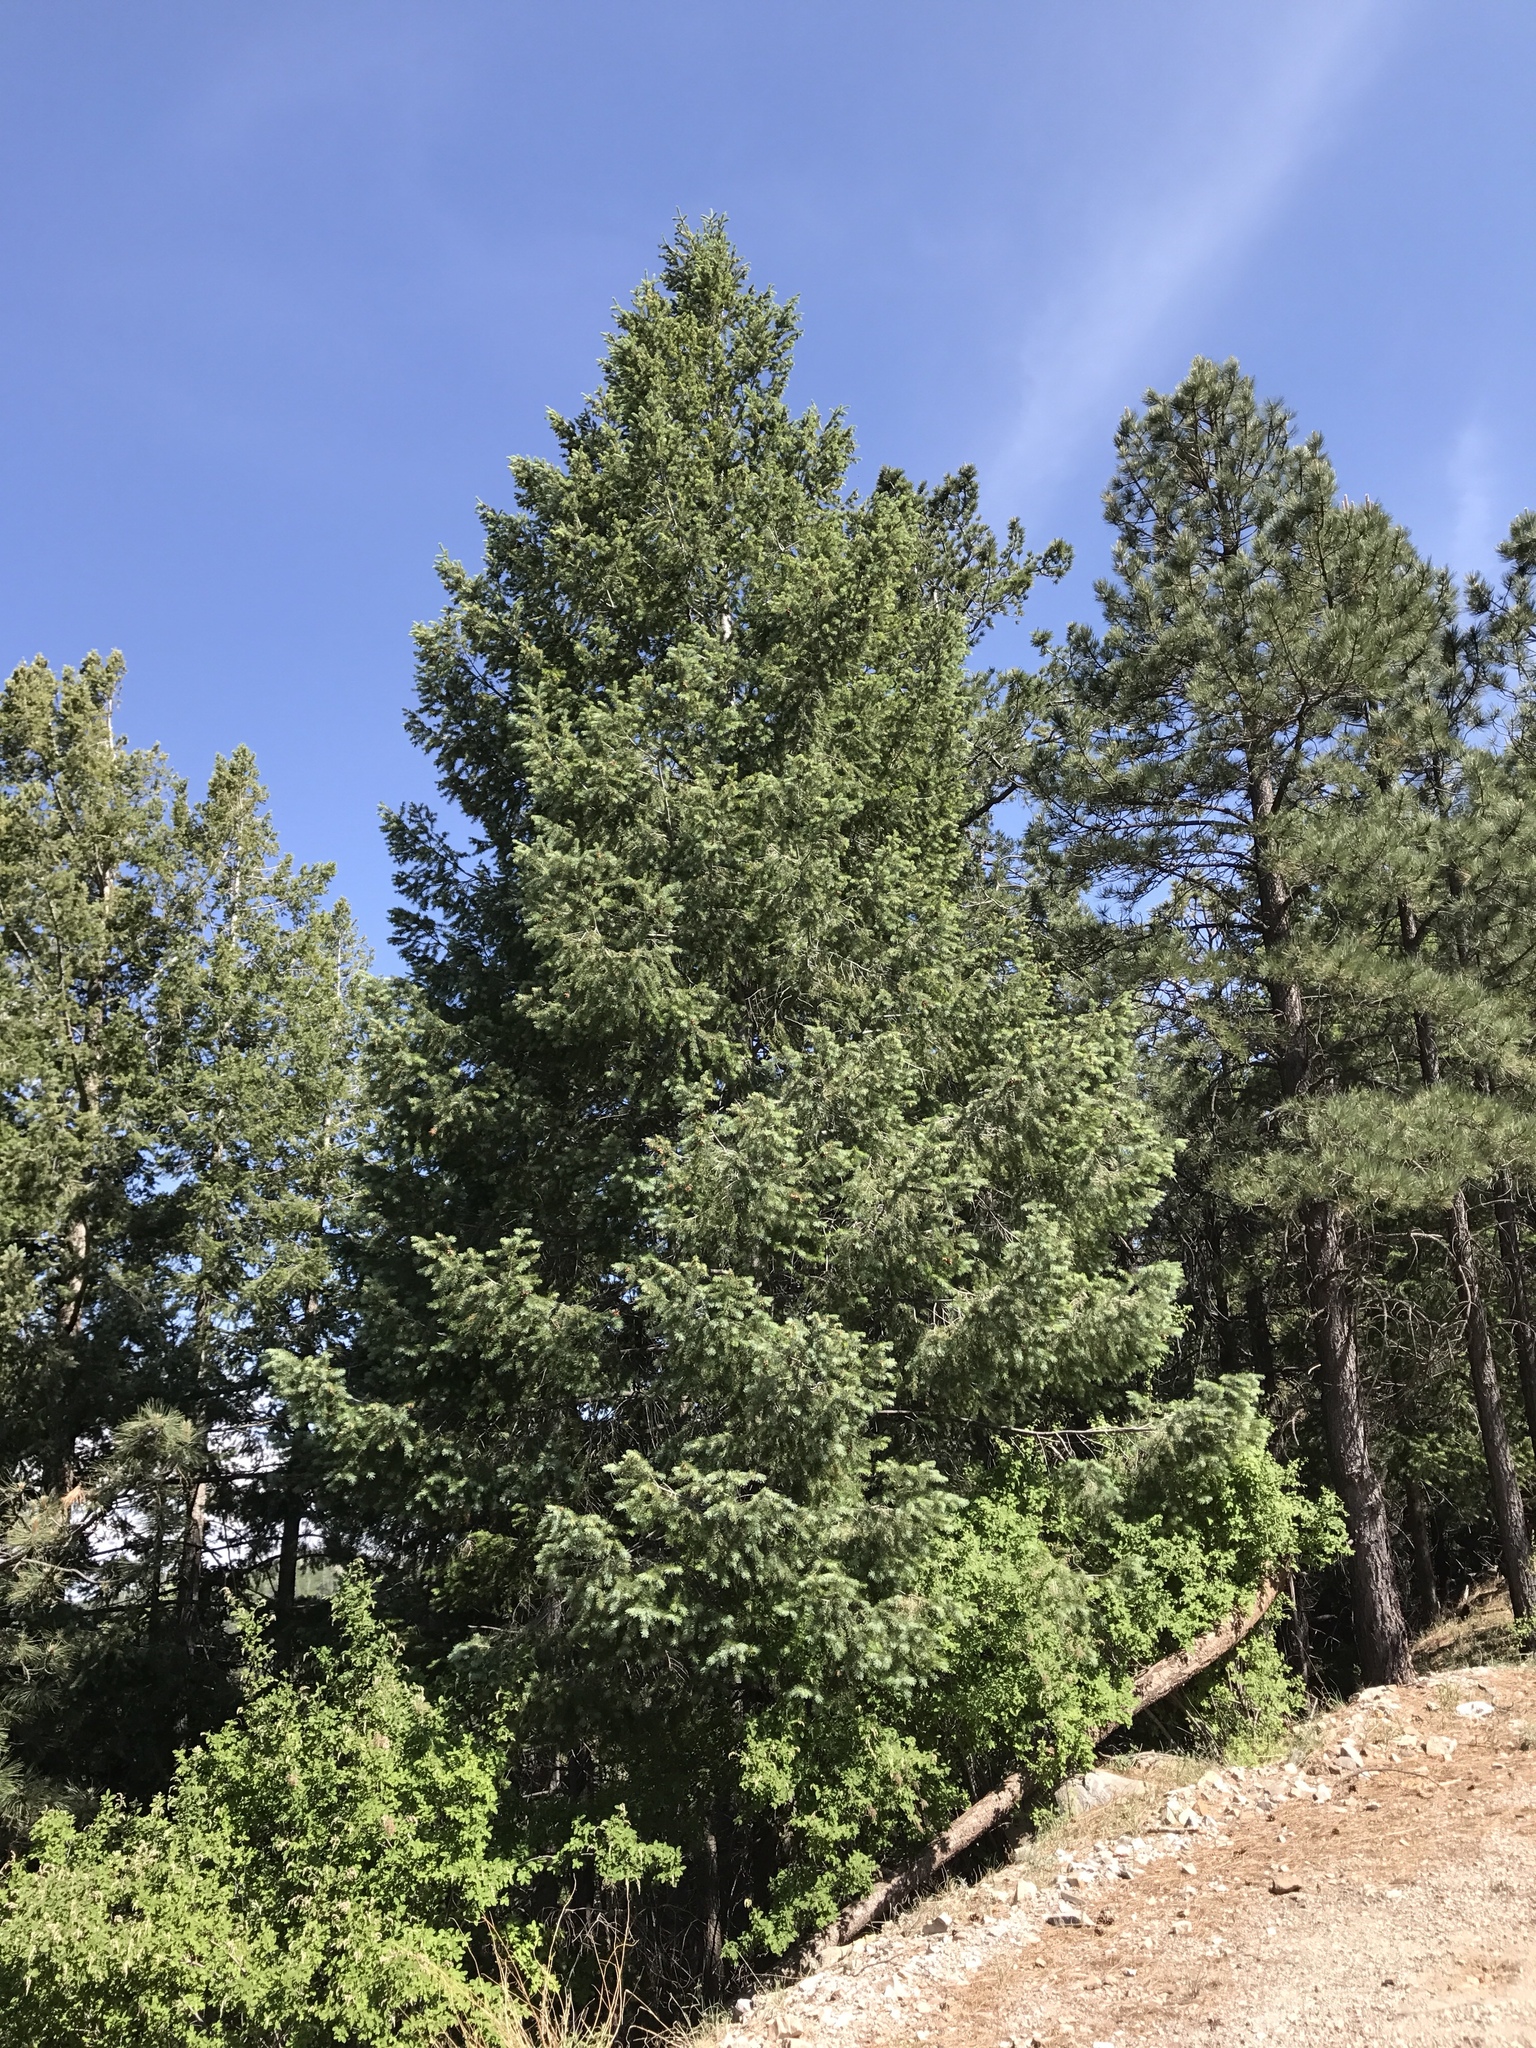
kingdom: Plantae
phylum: Tracheophyta
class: Pinopsida
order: Pinales
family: Pinaceae
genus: Pseudotsuga
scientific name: Pseudotsuga menziesii
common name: Douglas fir
